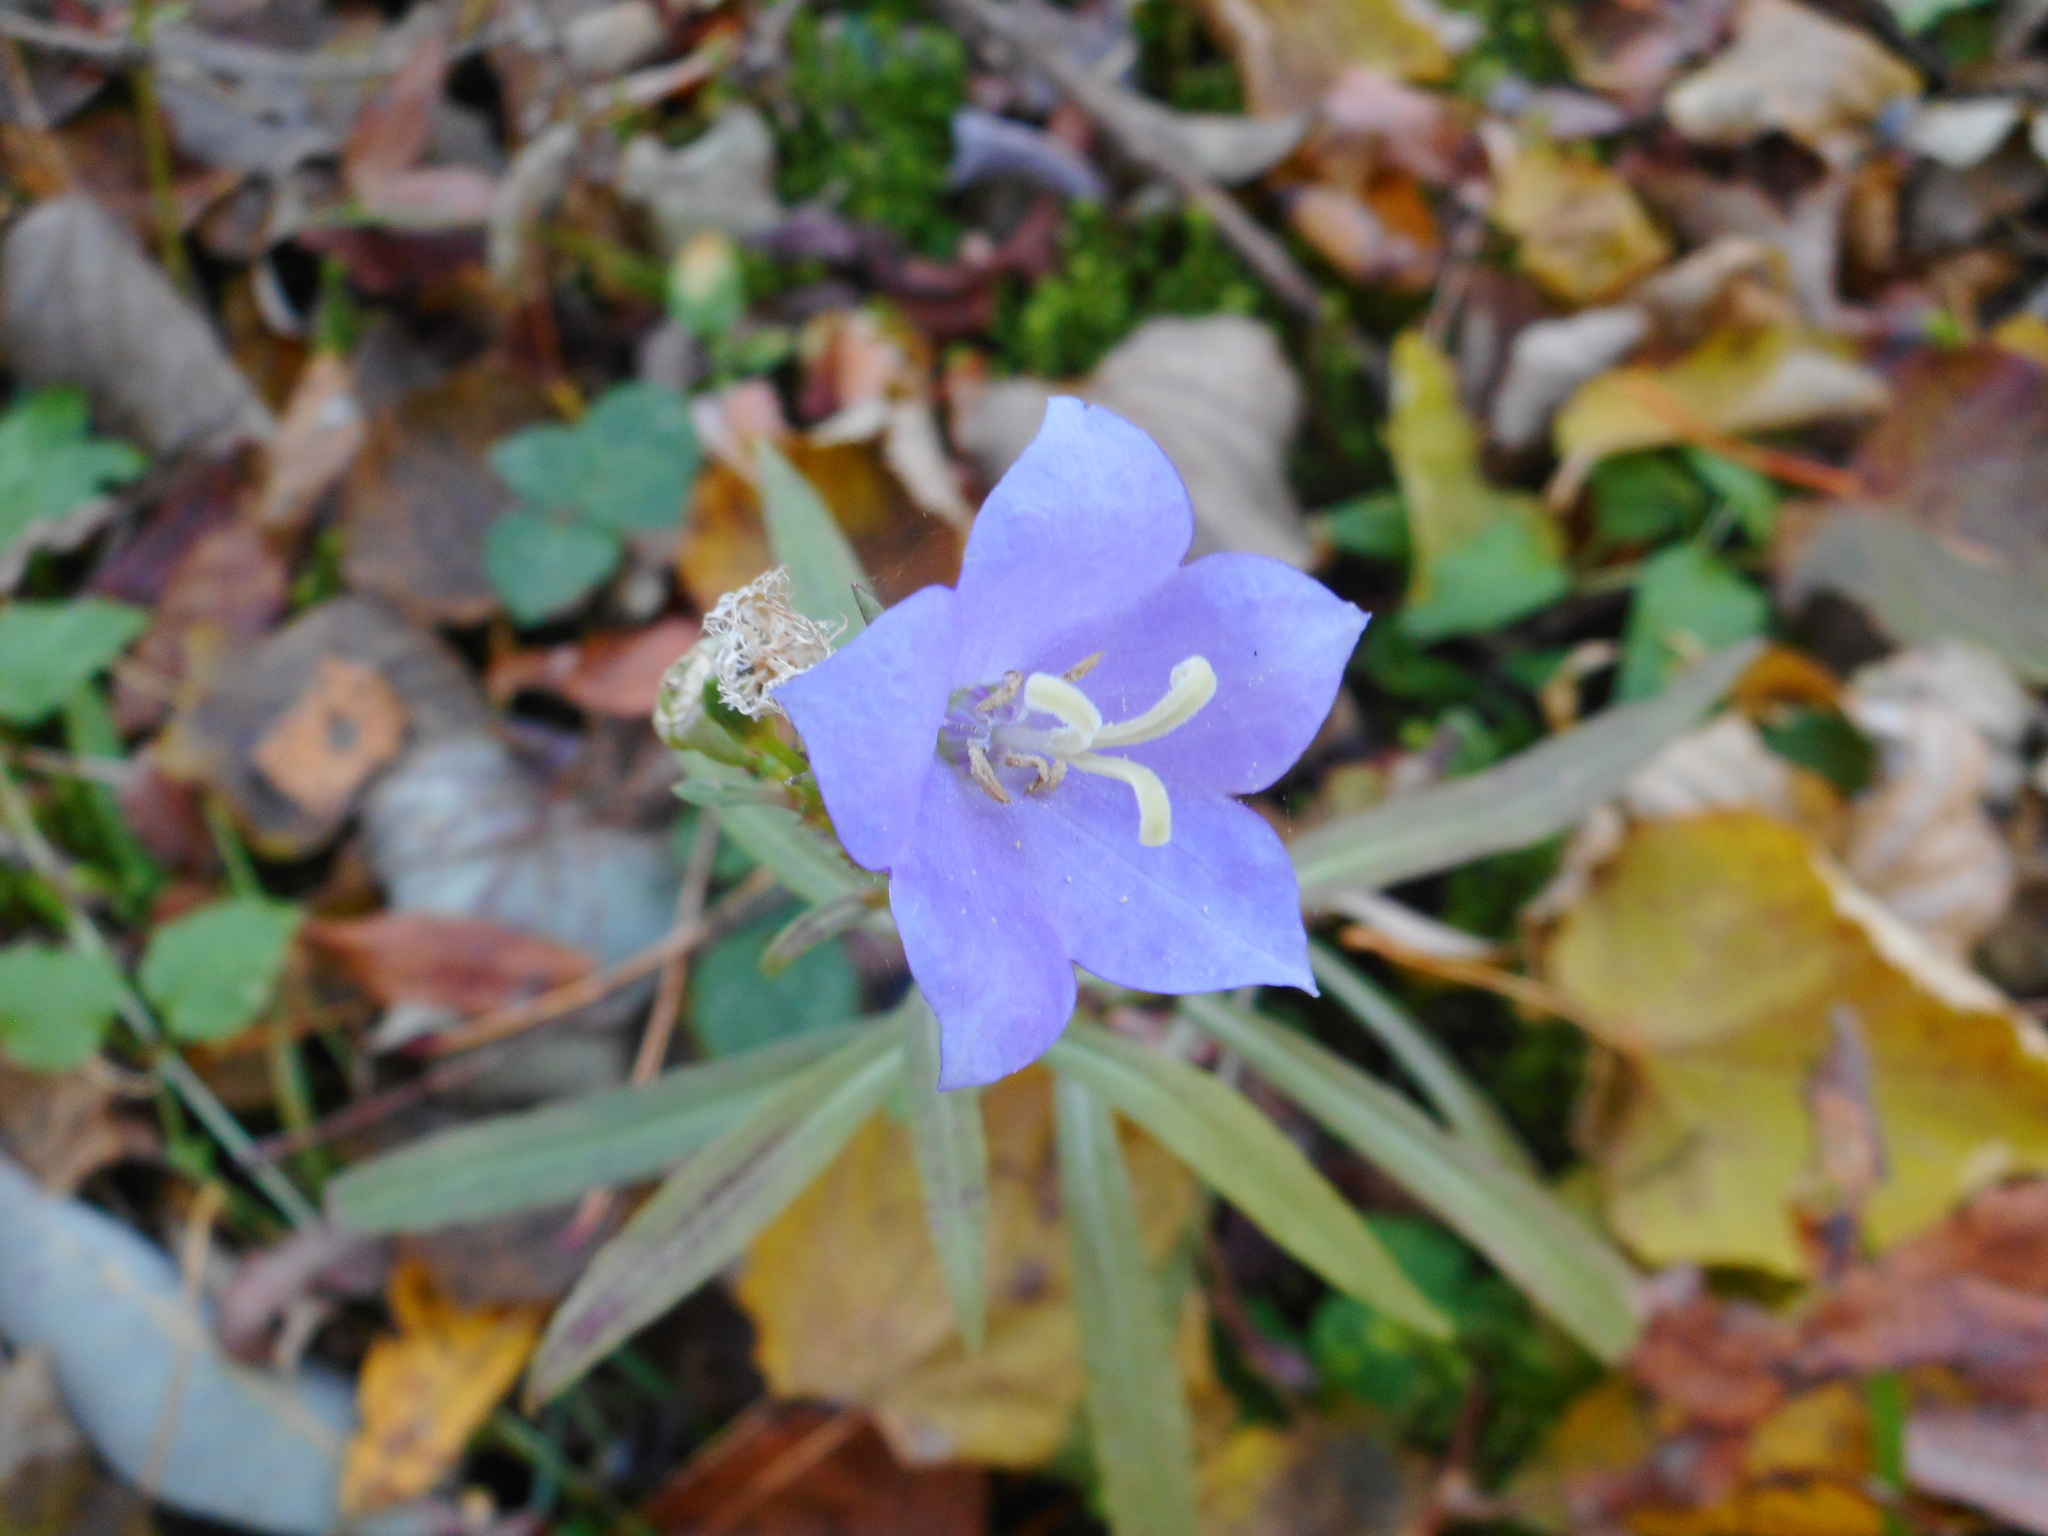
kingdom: Plantae
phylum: Tracheophyta
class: Magnoliopsida
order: Asterales
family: Campanulaceae
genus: Campanula
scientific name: Campanula persicifolia
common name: Peach-leaved bellflower
